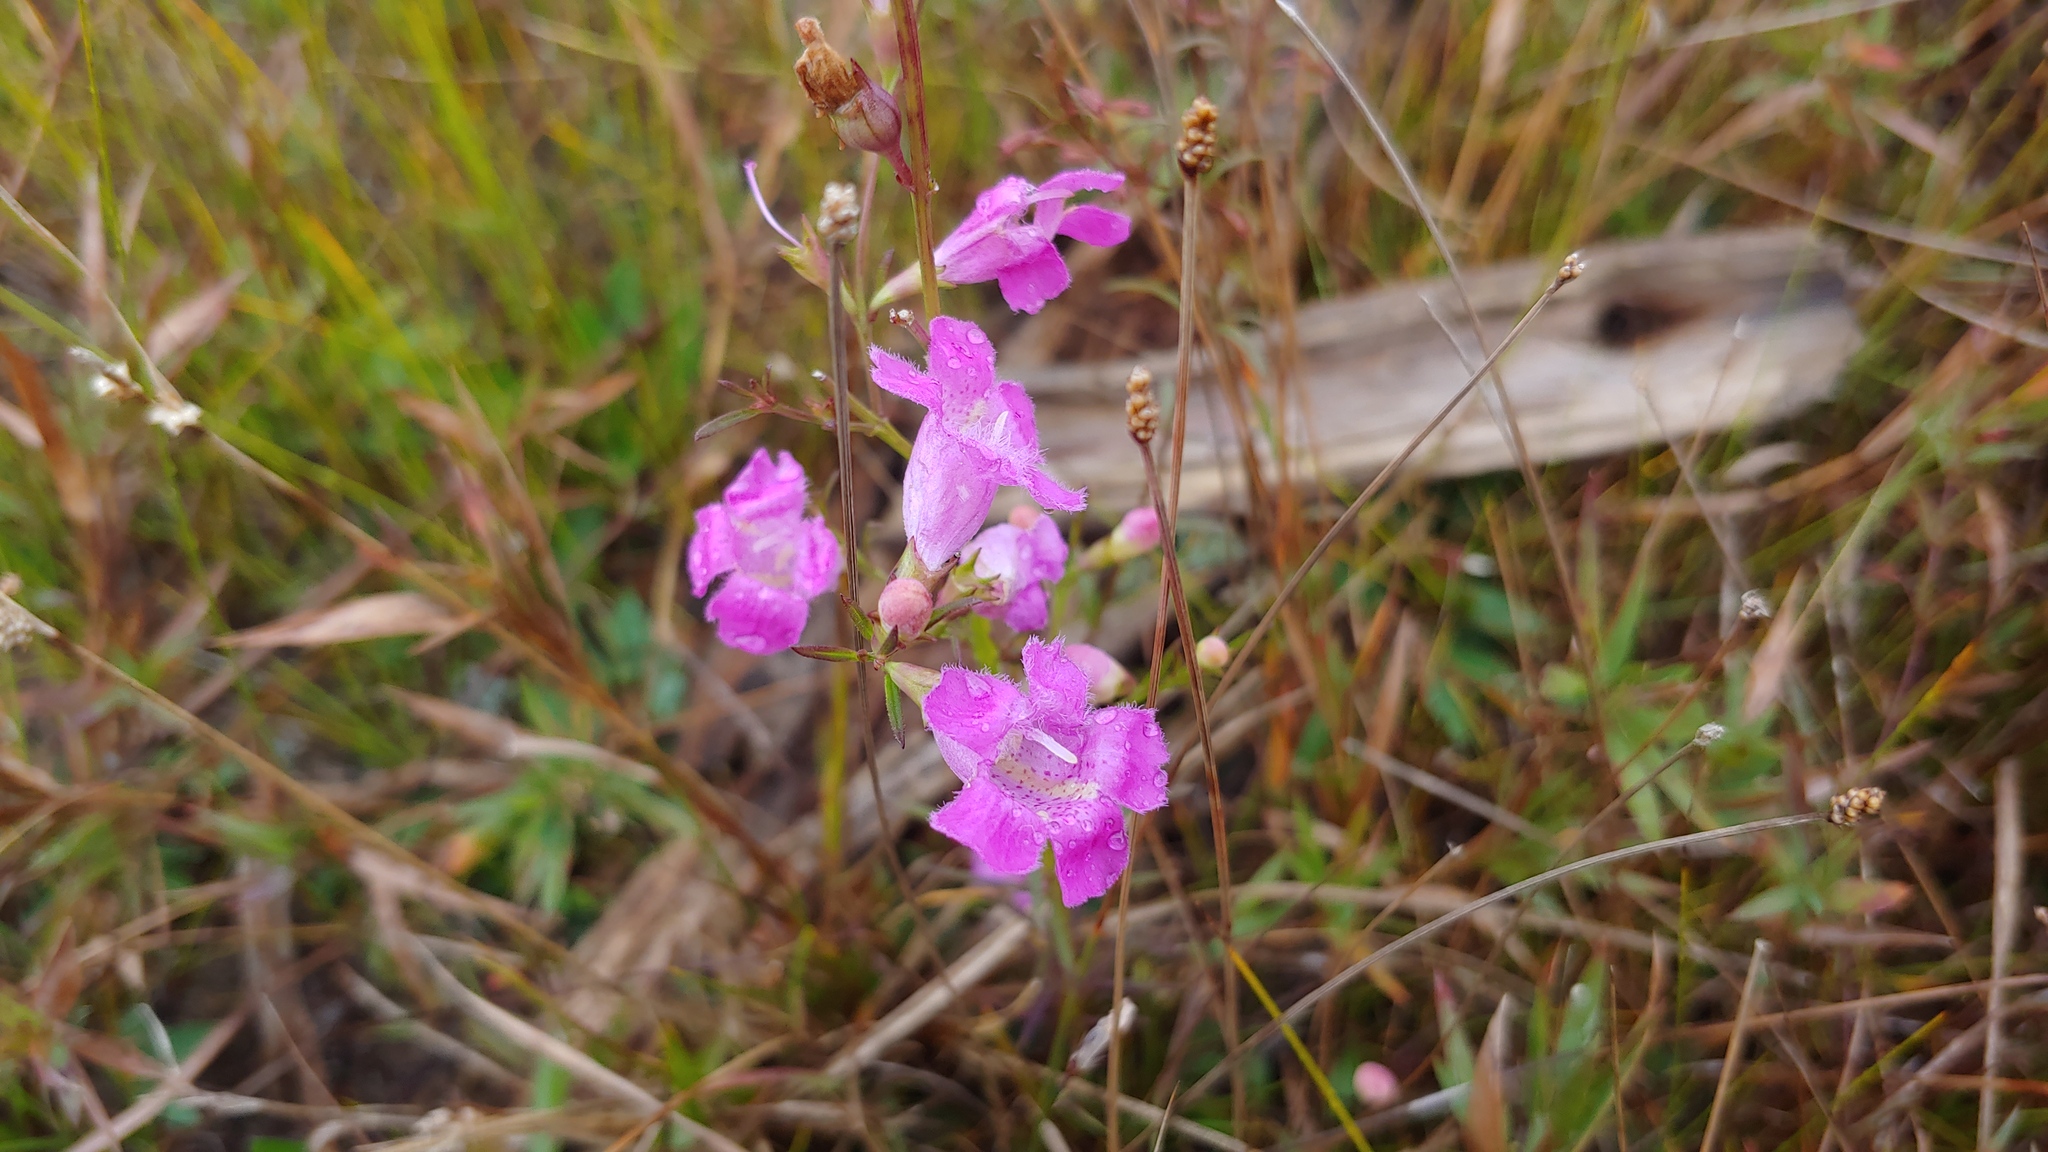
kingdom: Plantae
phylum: Tracheophyta
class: Magnoliopsida
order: Lamiales
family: Orobanchaceae
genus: Agalinis
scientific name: Agalinis purpurea
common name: Purple false foxglove
